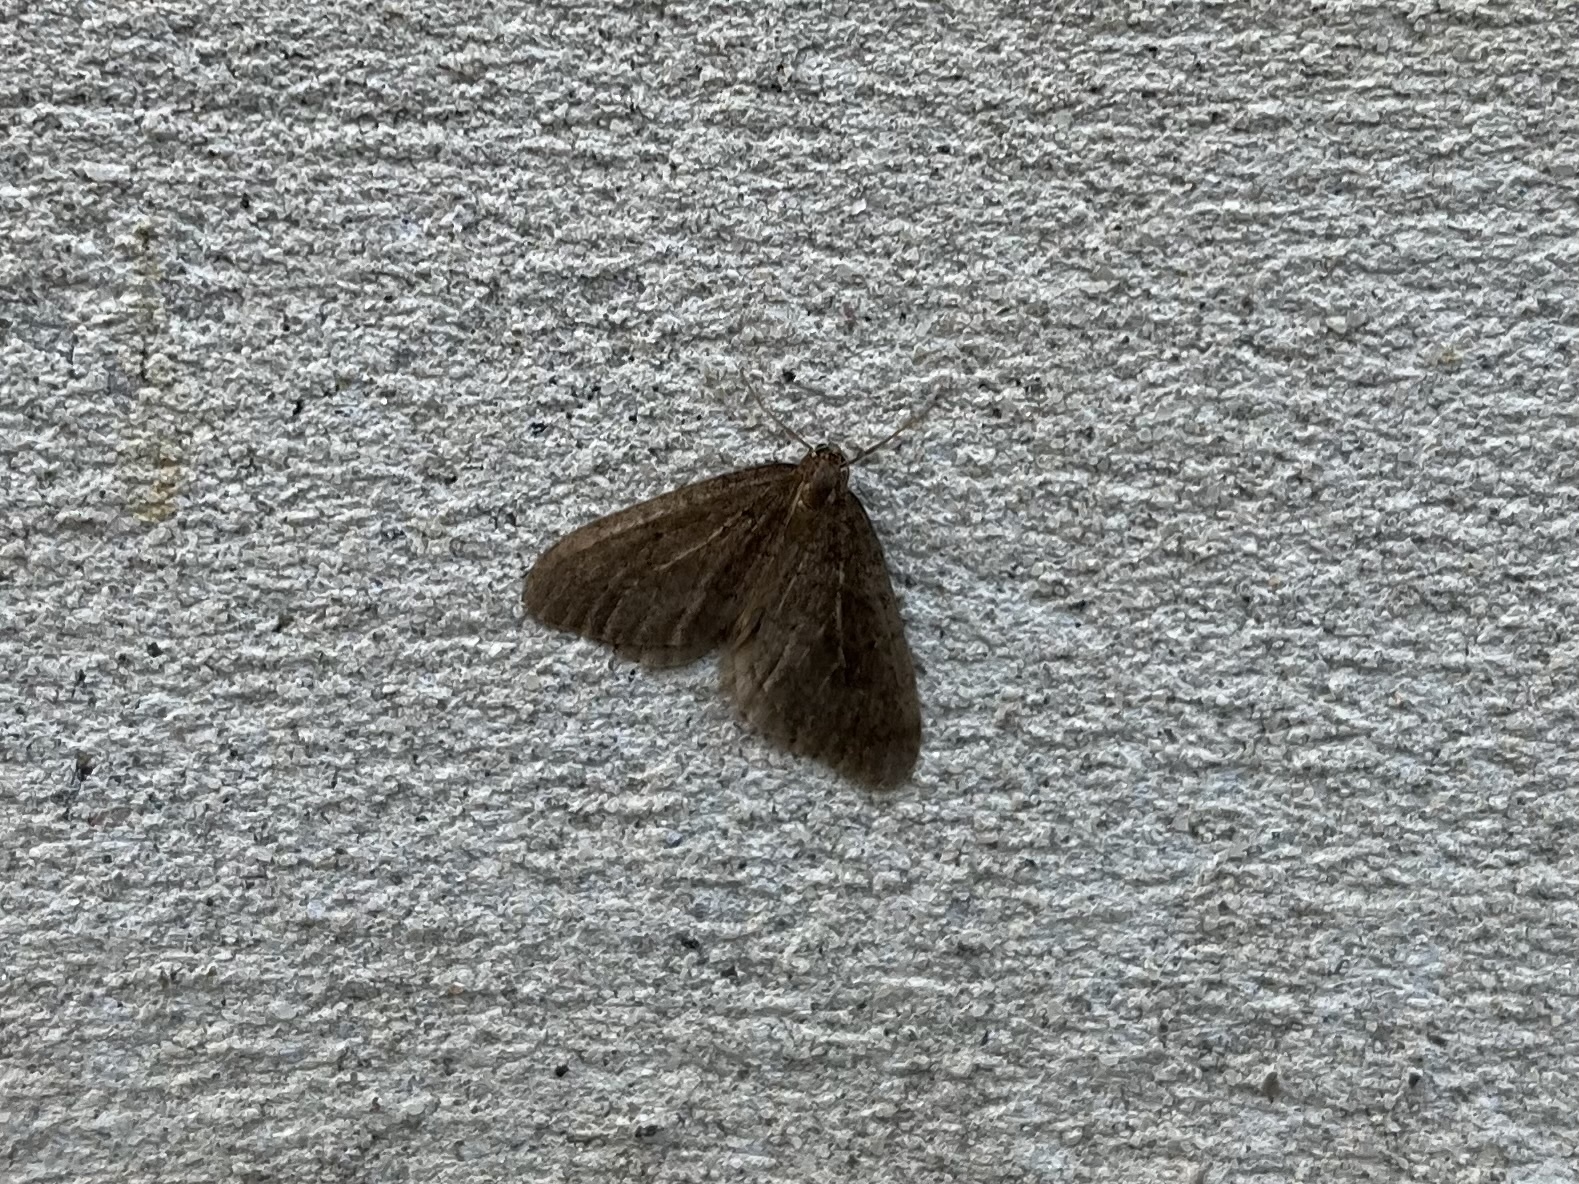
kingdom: Animalia
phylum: Arthropoda
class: Insecta
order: Lepidoptera
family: Geometridae
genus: Operophtera
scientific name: Operophtera brumata
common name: Winter moth
